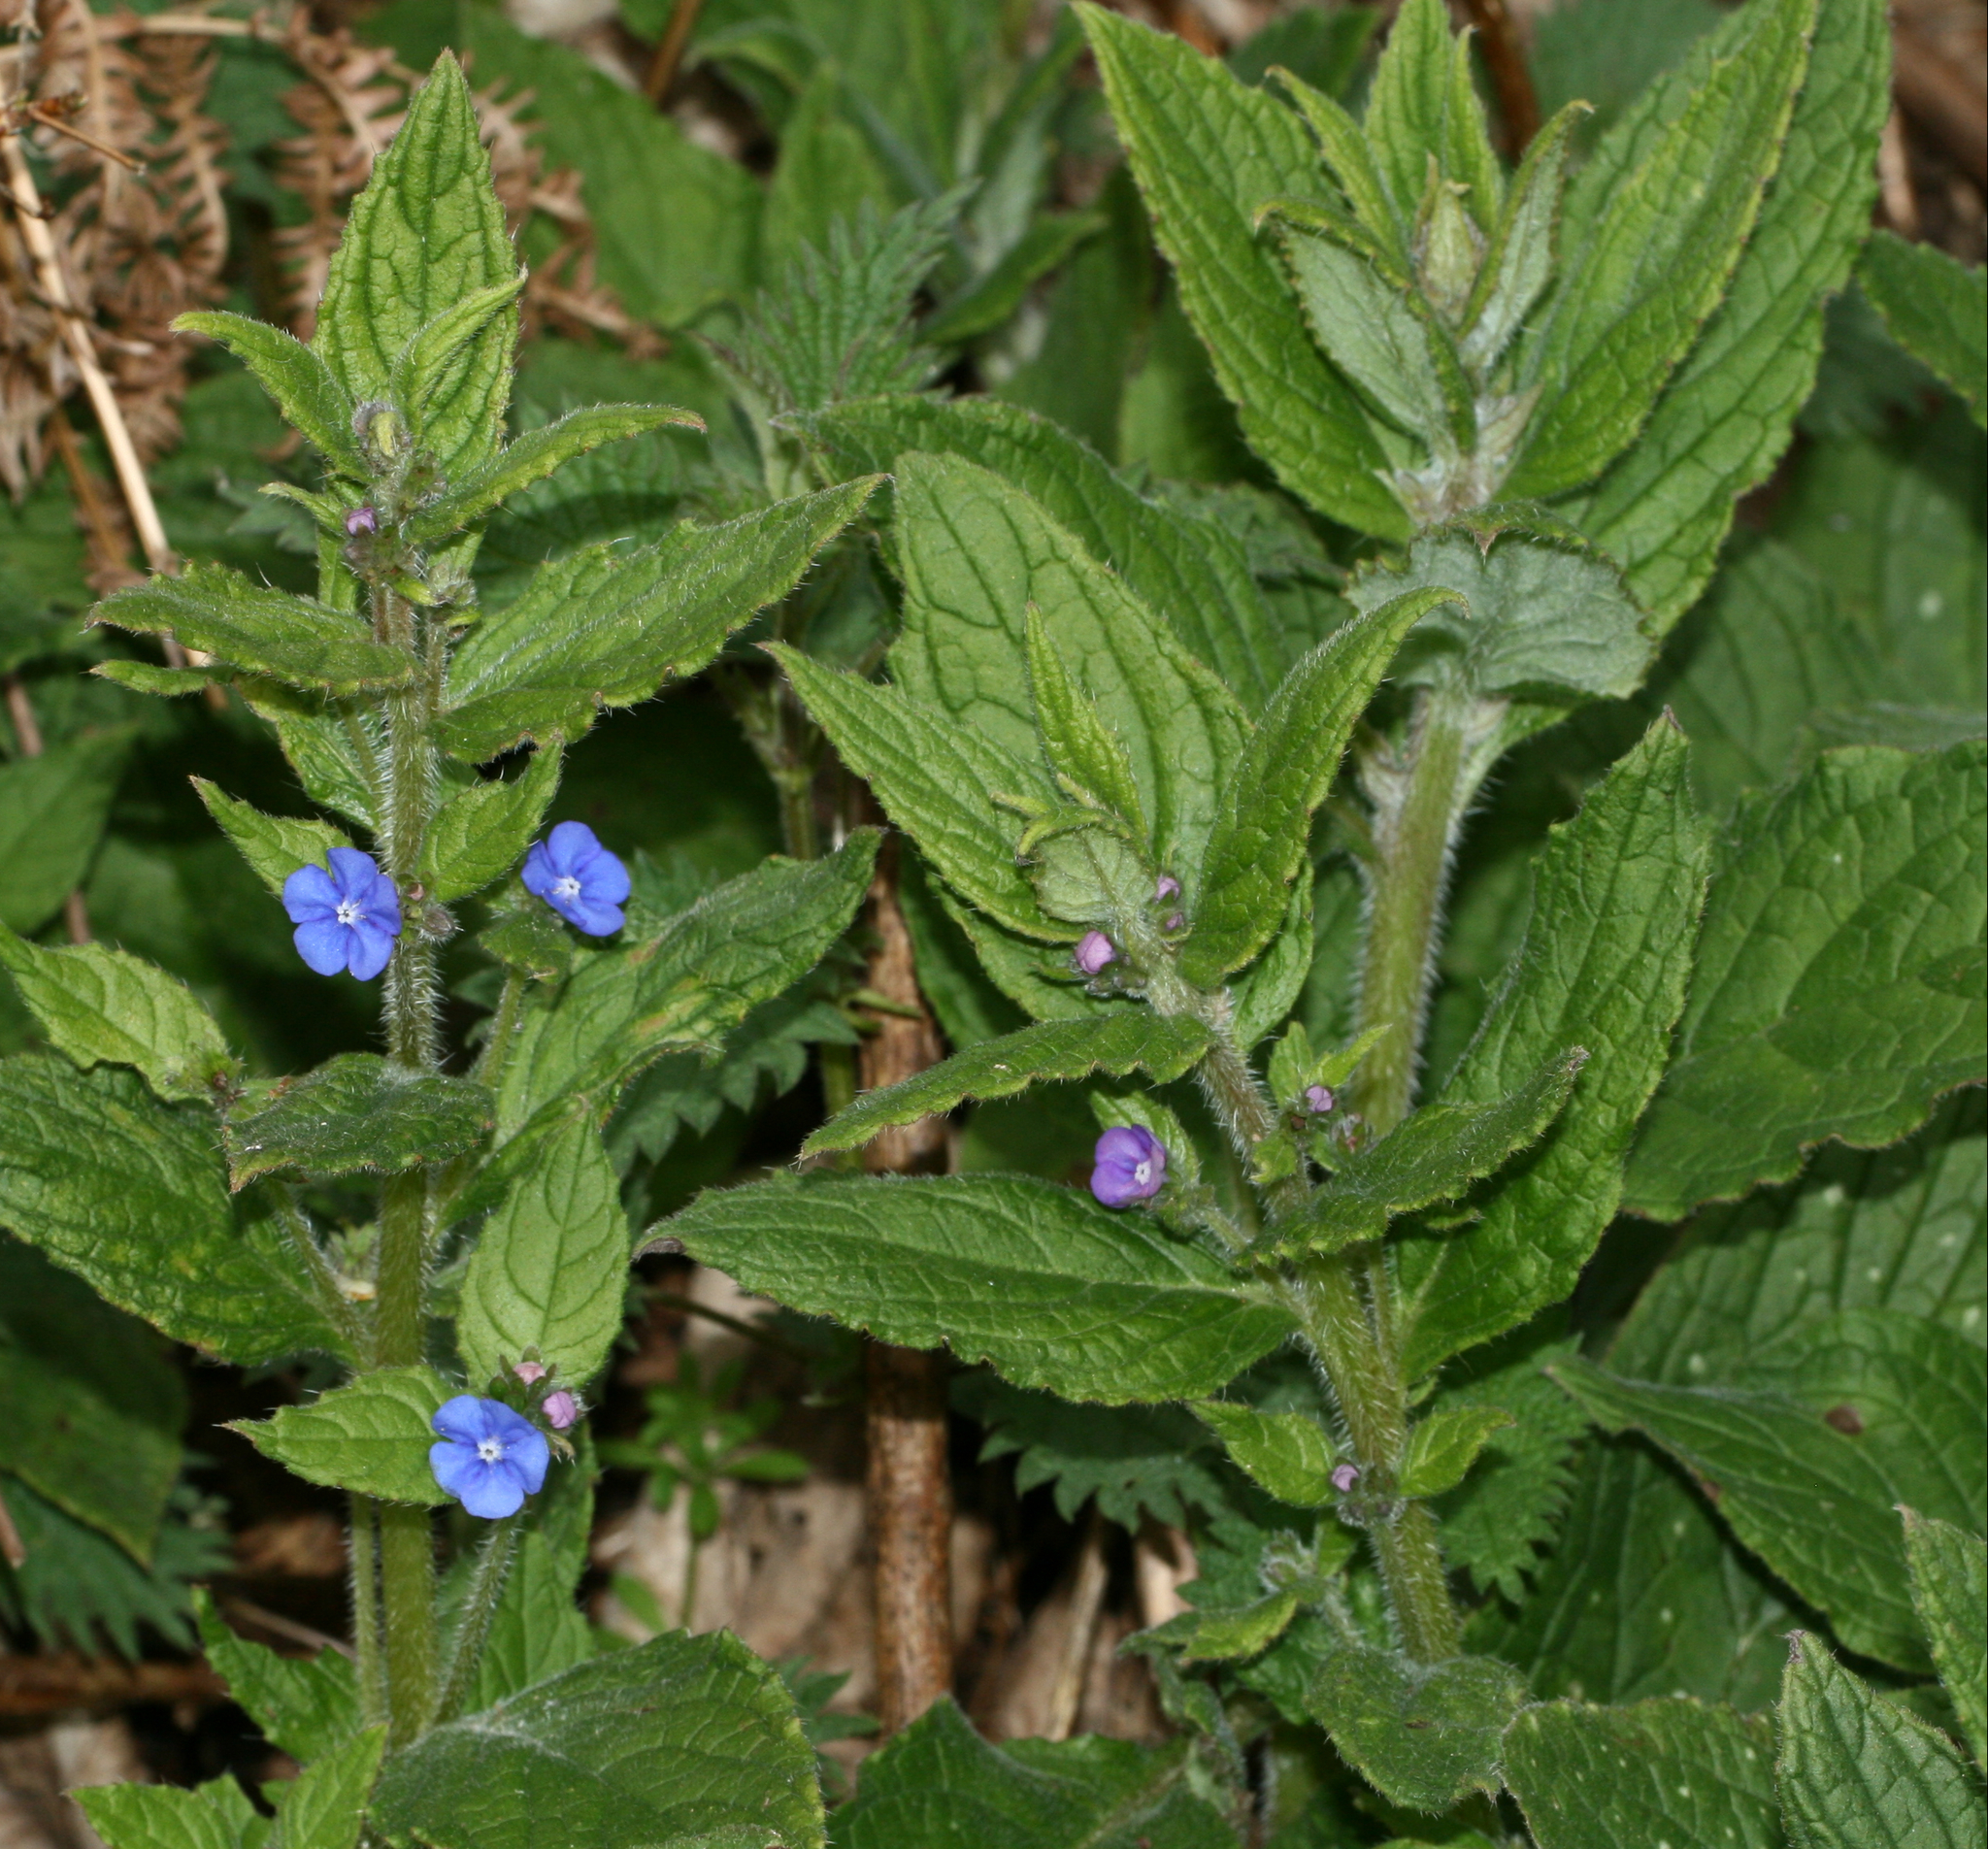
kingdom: Plantae
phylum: Tracheophyta
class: Magnoliopsida
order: Boraginales
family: Boraginaceae
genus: Pentaglottis
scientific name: Pentaglottis sempervirens
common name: Green alkanet
